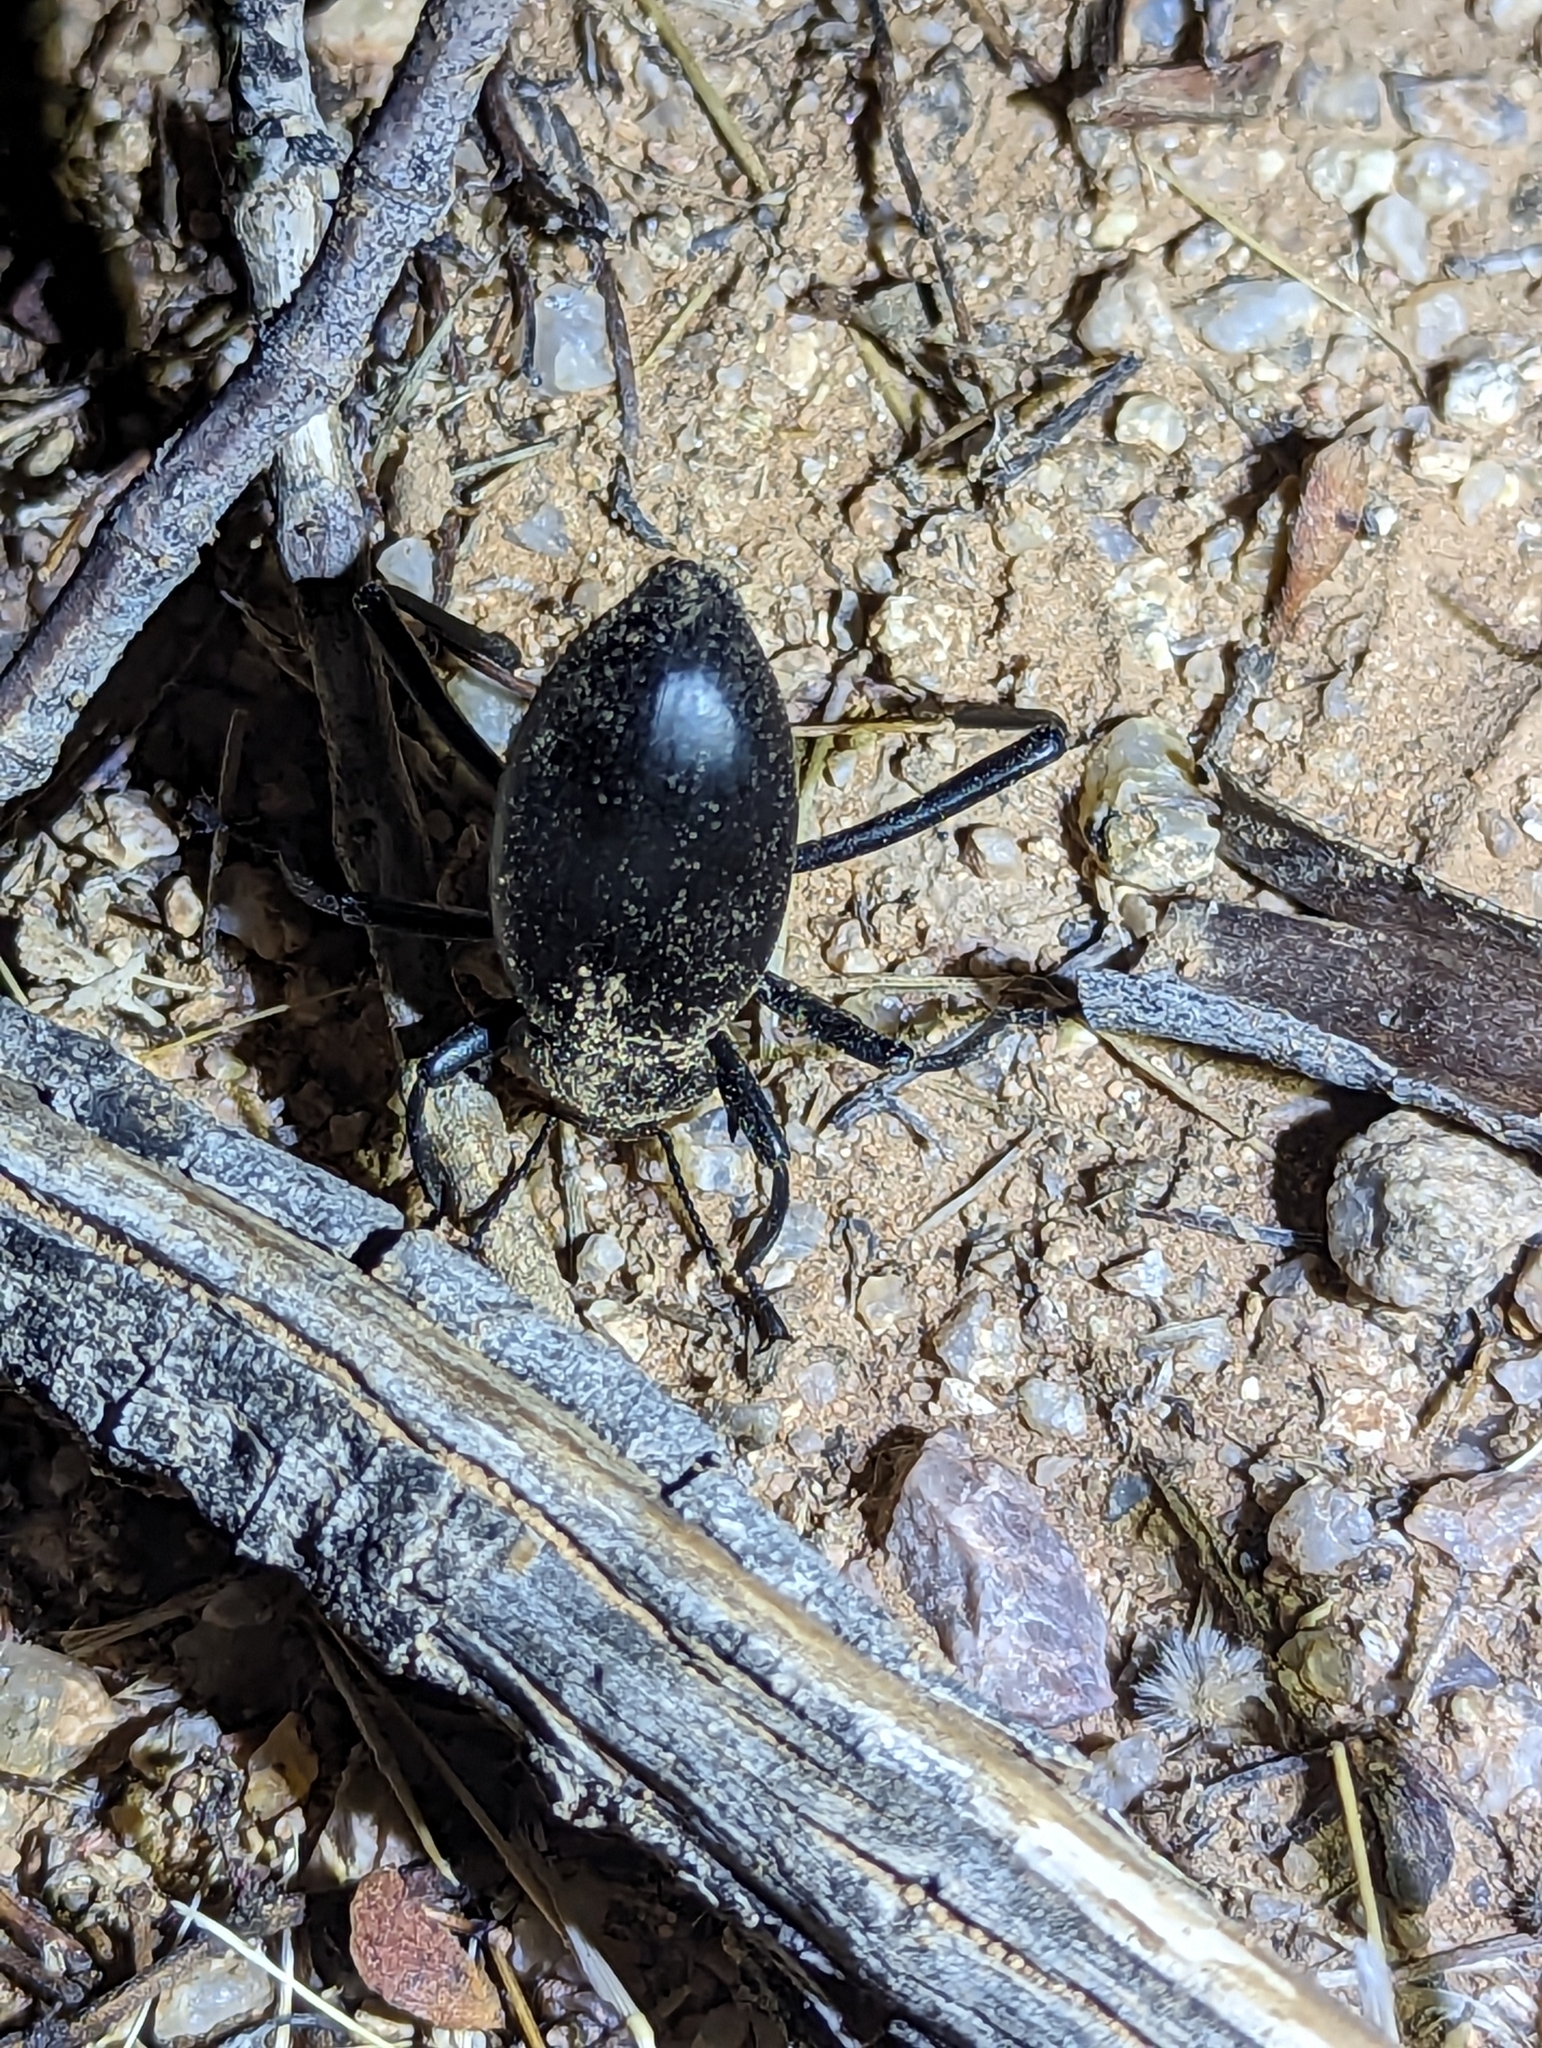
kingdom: Animalia
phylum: Arthropoda
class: Insecta
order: Coleoptera
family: Tenebrionidae
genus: Eleodes
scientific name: Eleodes armata
